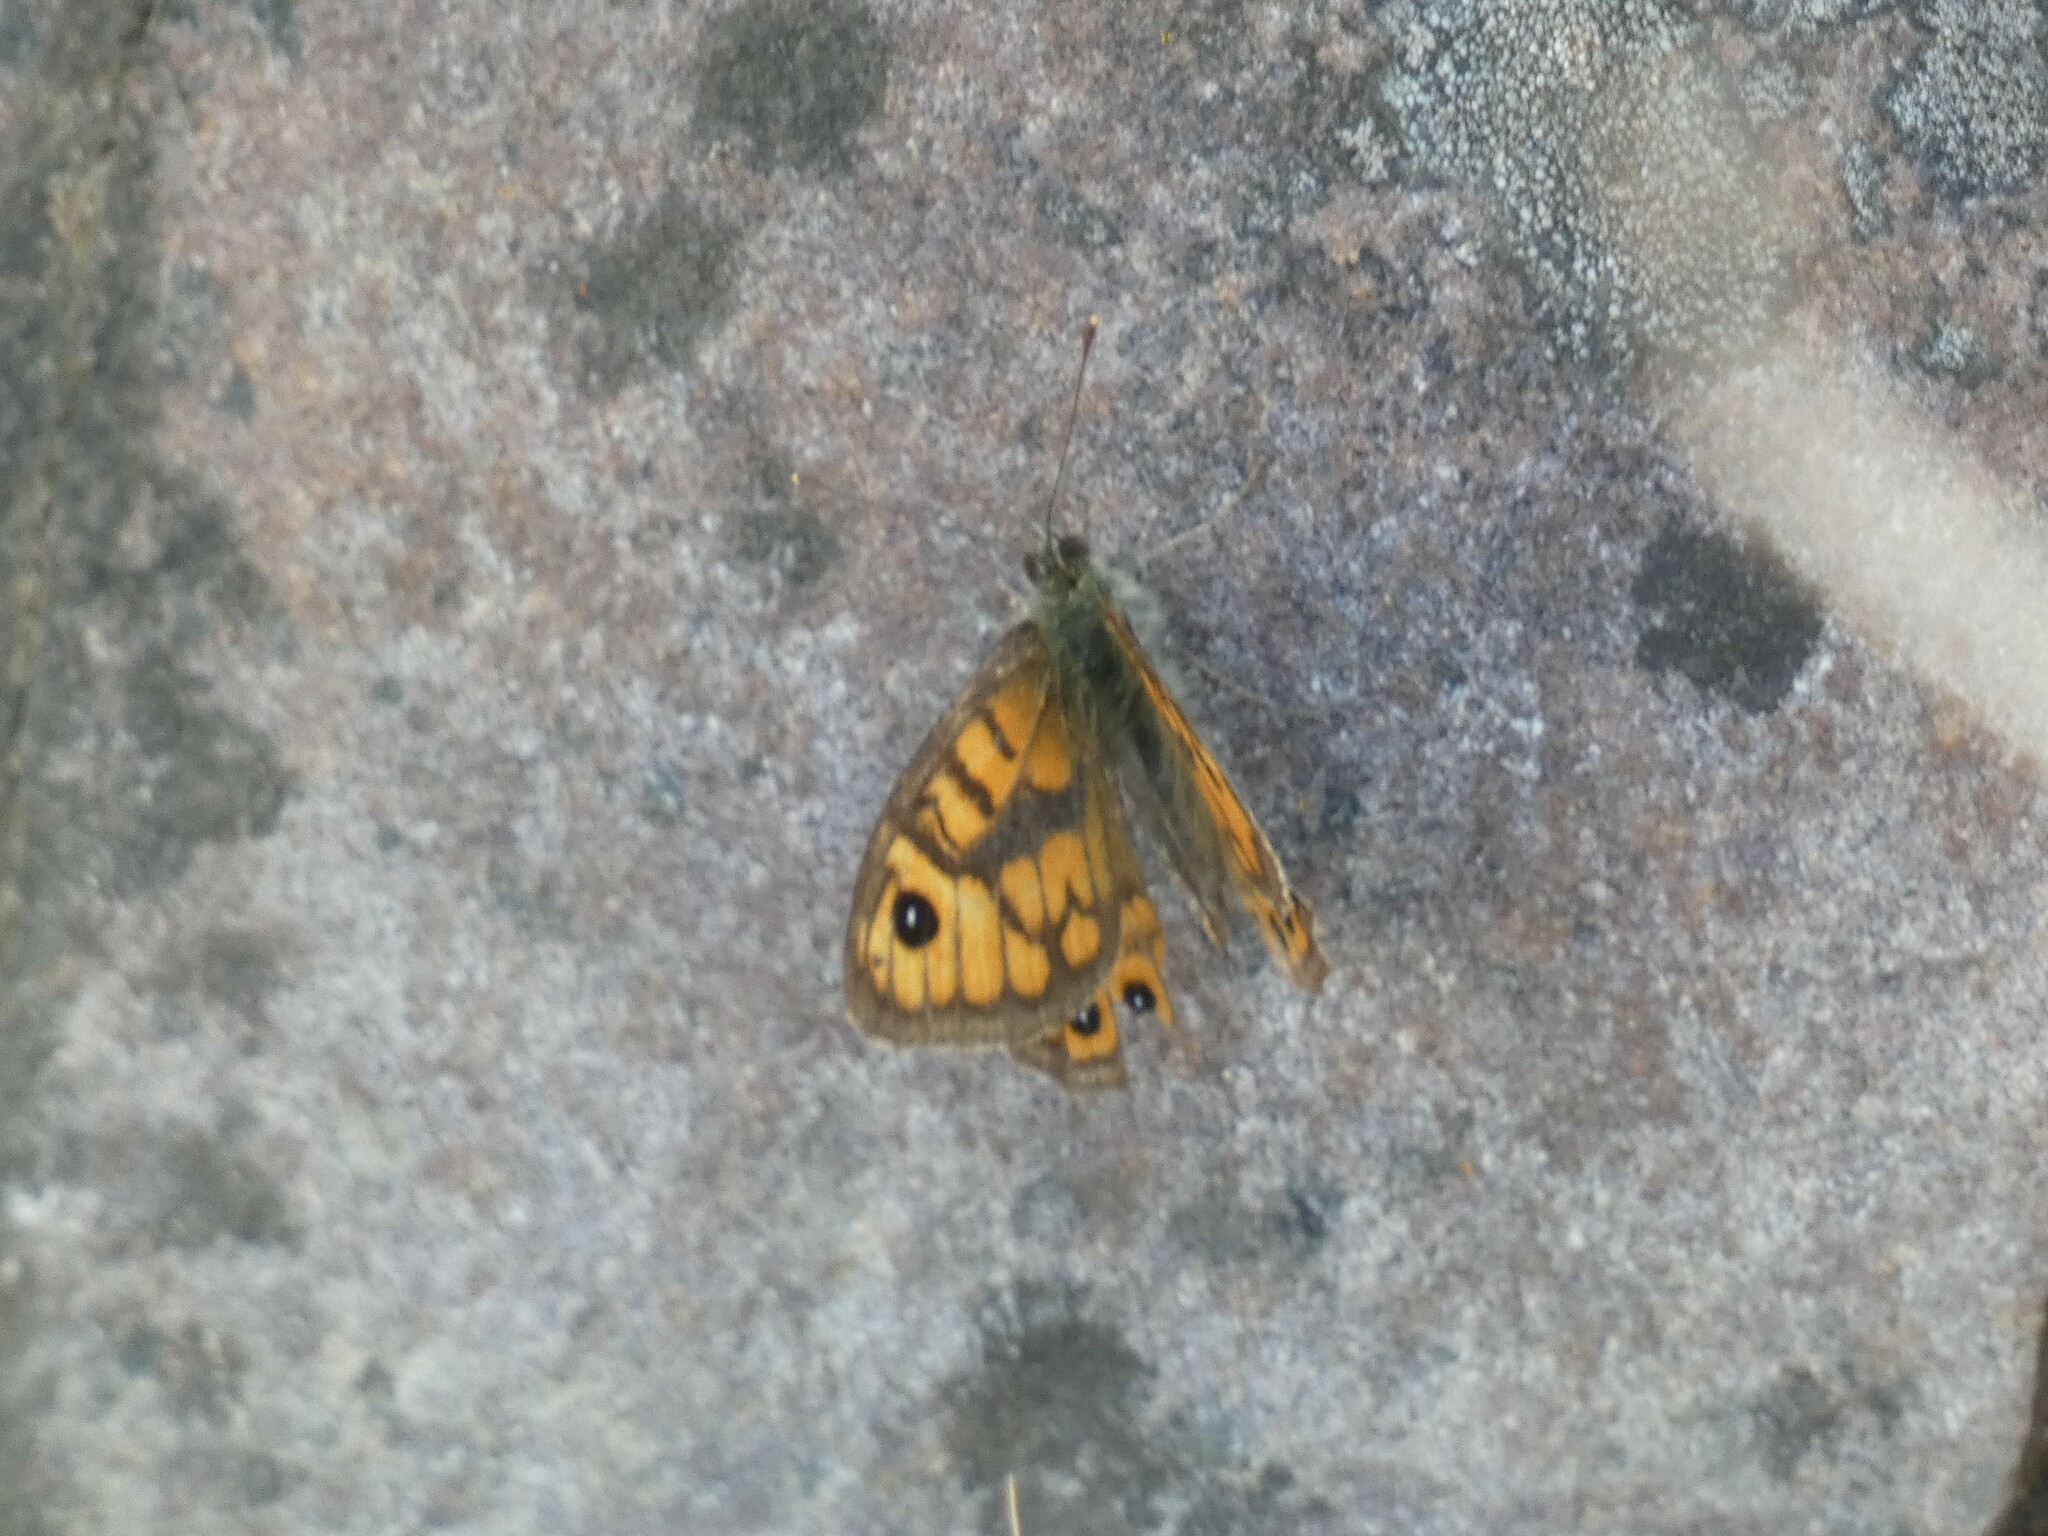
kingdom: Animalia
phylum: Arthropoda
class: Insecta
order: Lepidoptera
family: Nymphalidae
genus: Pararge
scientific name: Pararge Lasiommata megera
